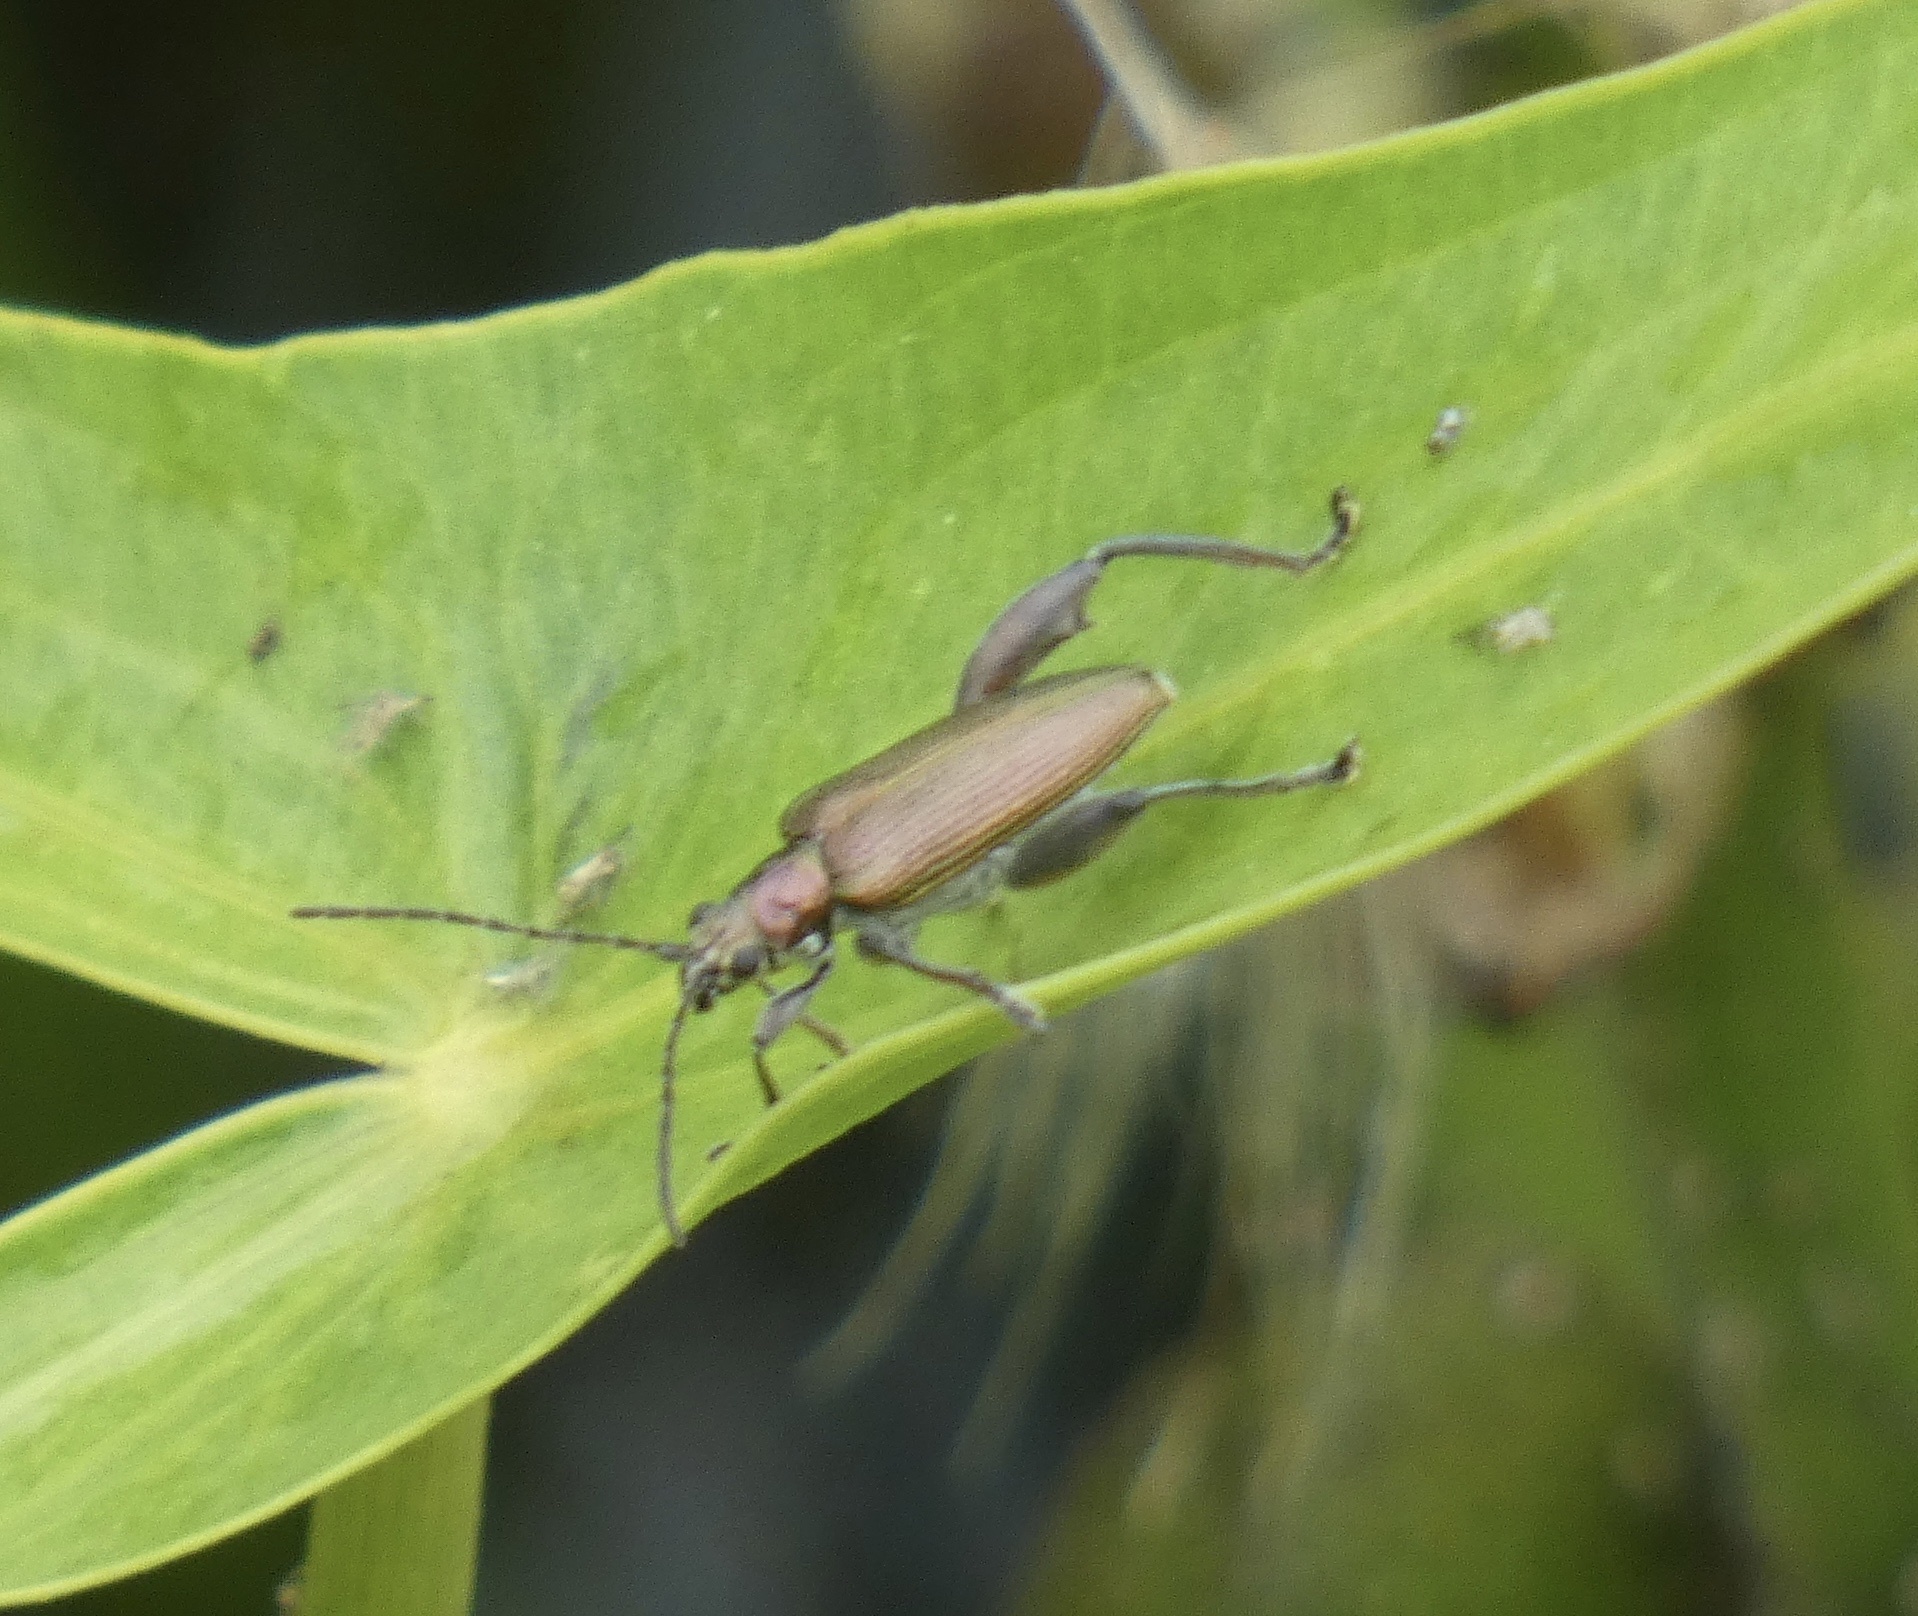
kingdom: Animalia
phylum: Arthropoda
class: Insecta
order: Coleoptera
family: Chrysomelidae
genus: Donacia
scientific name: Donacia dentata
